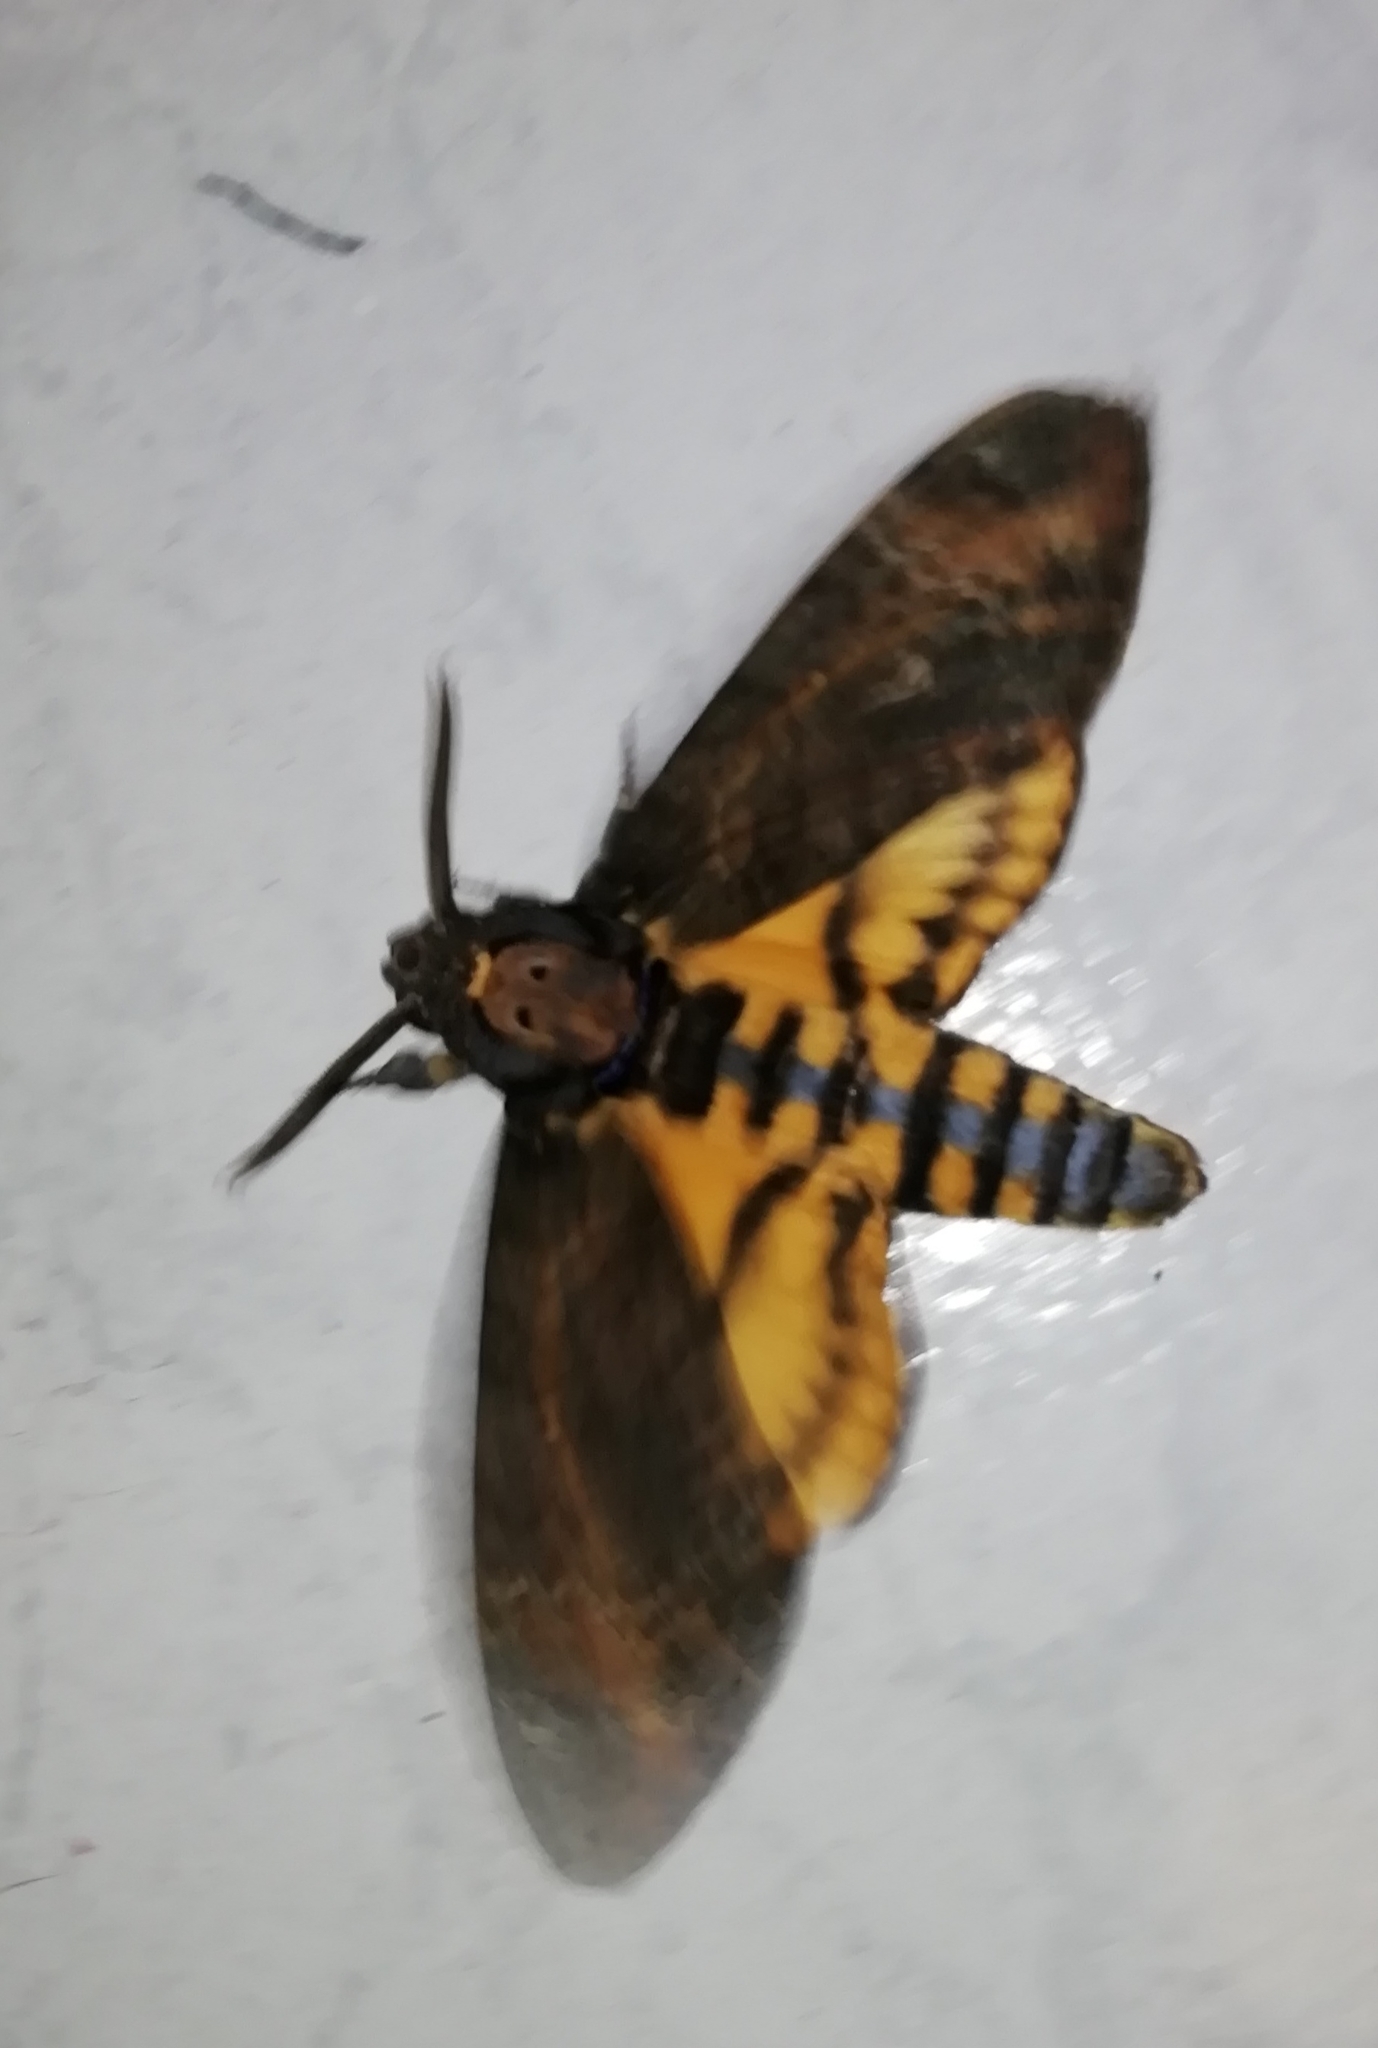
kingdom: Animalia
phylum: Arthropoda
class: Insecta
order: Lepidoptera
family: Sphingidae
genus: Acherontia
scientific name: Acherontia styx
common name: Death's-head hawk moth
